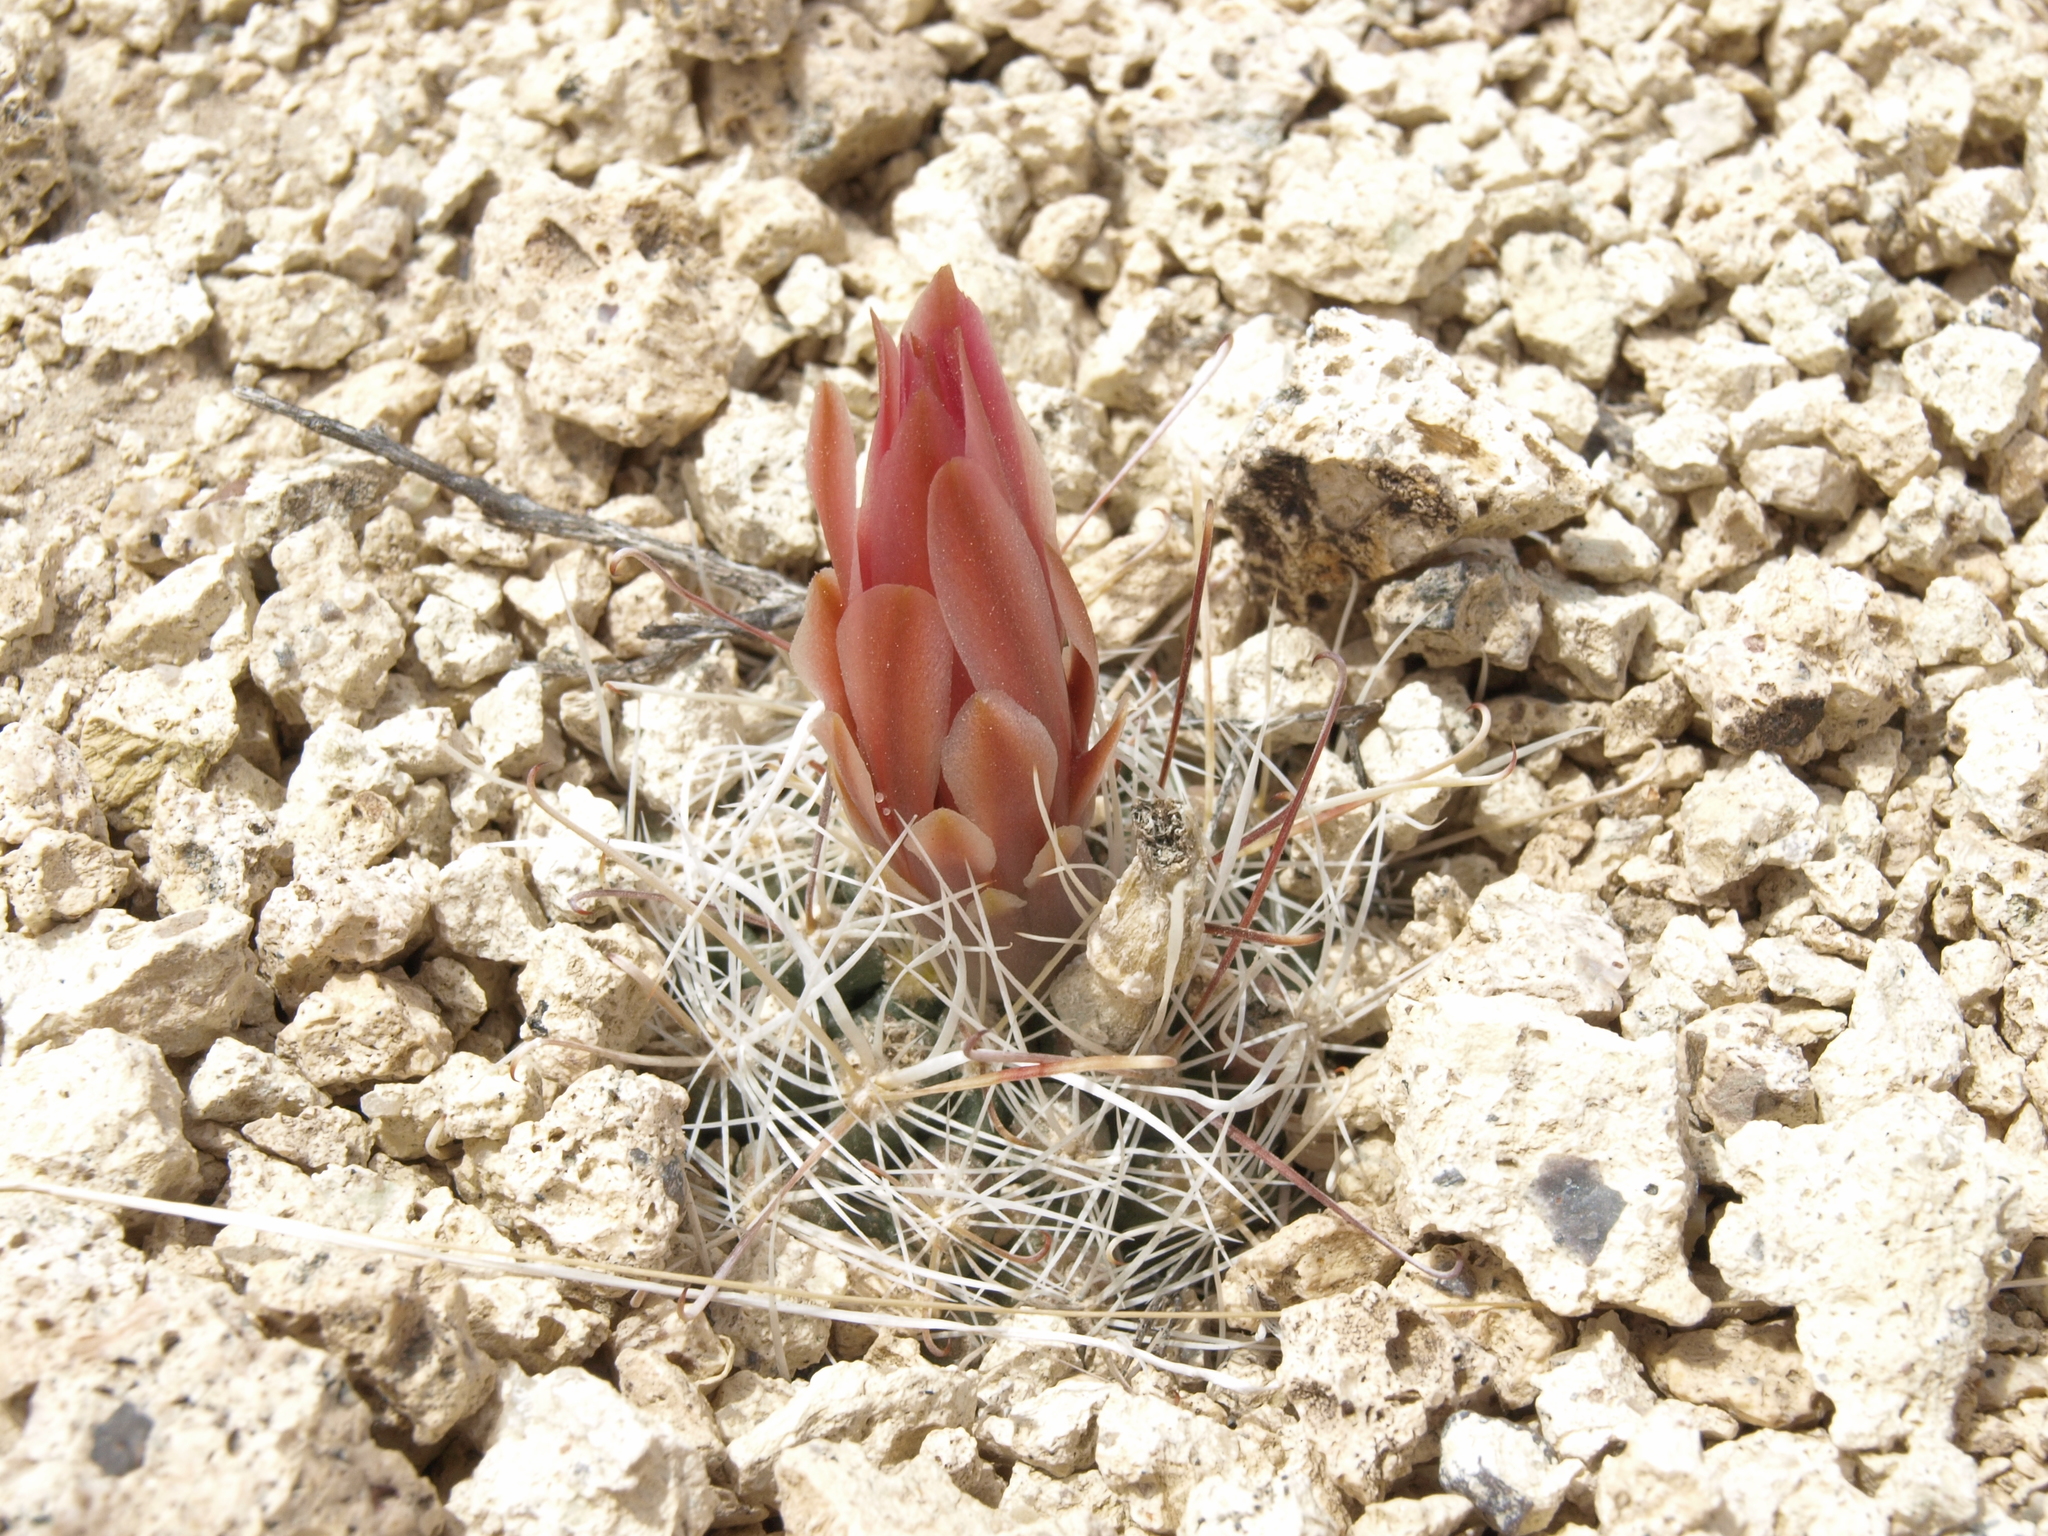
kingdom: Plantae
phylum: Tracheophyta
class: Magnoliopsida
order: Caryophyllales
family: Cactaceae
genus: Sclerocactus
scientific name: Sclerocactus nyensis
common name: Nye county fish-hook cactus
